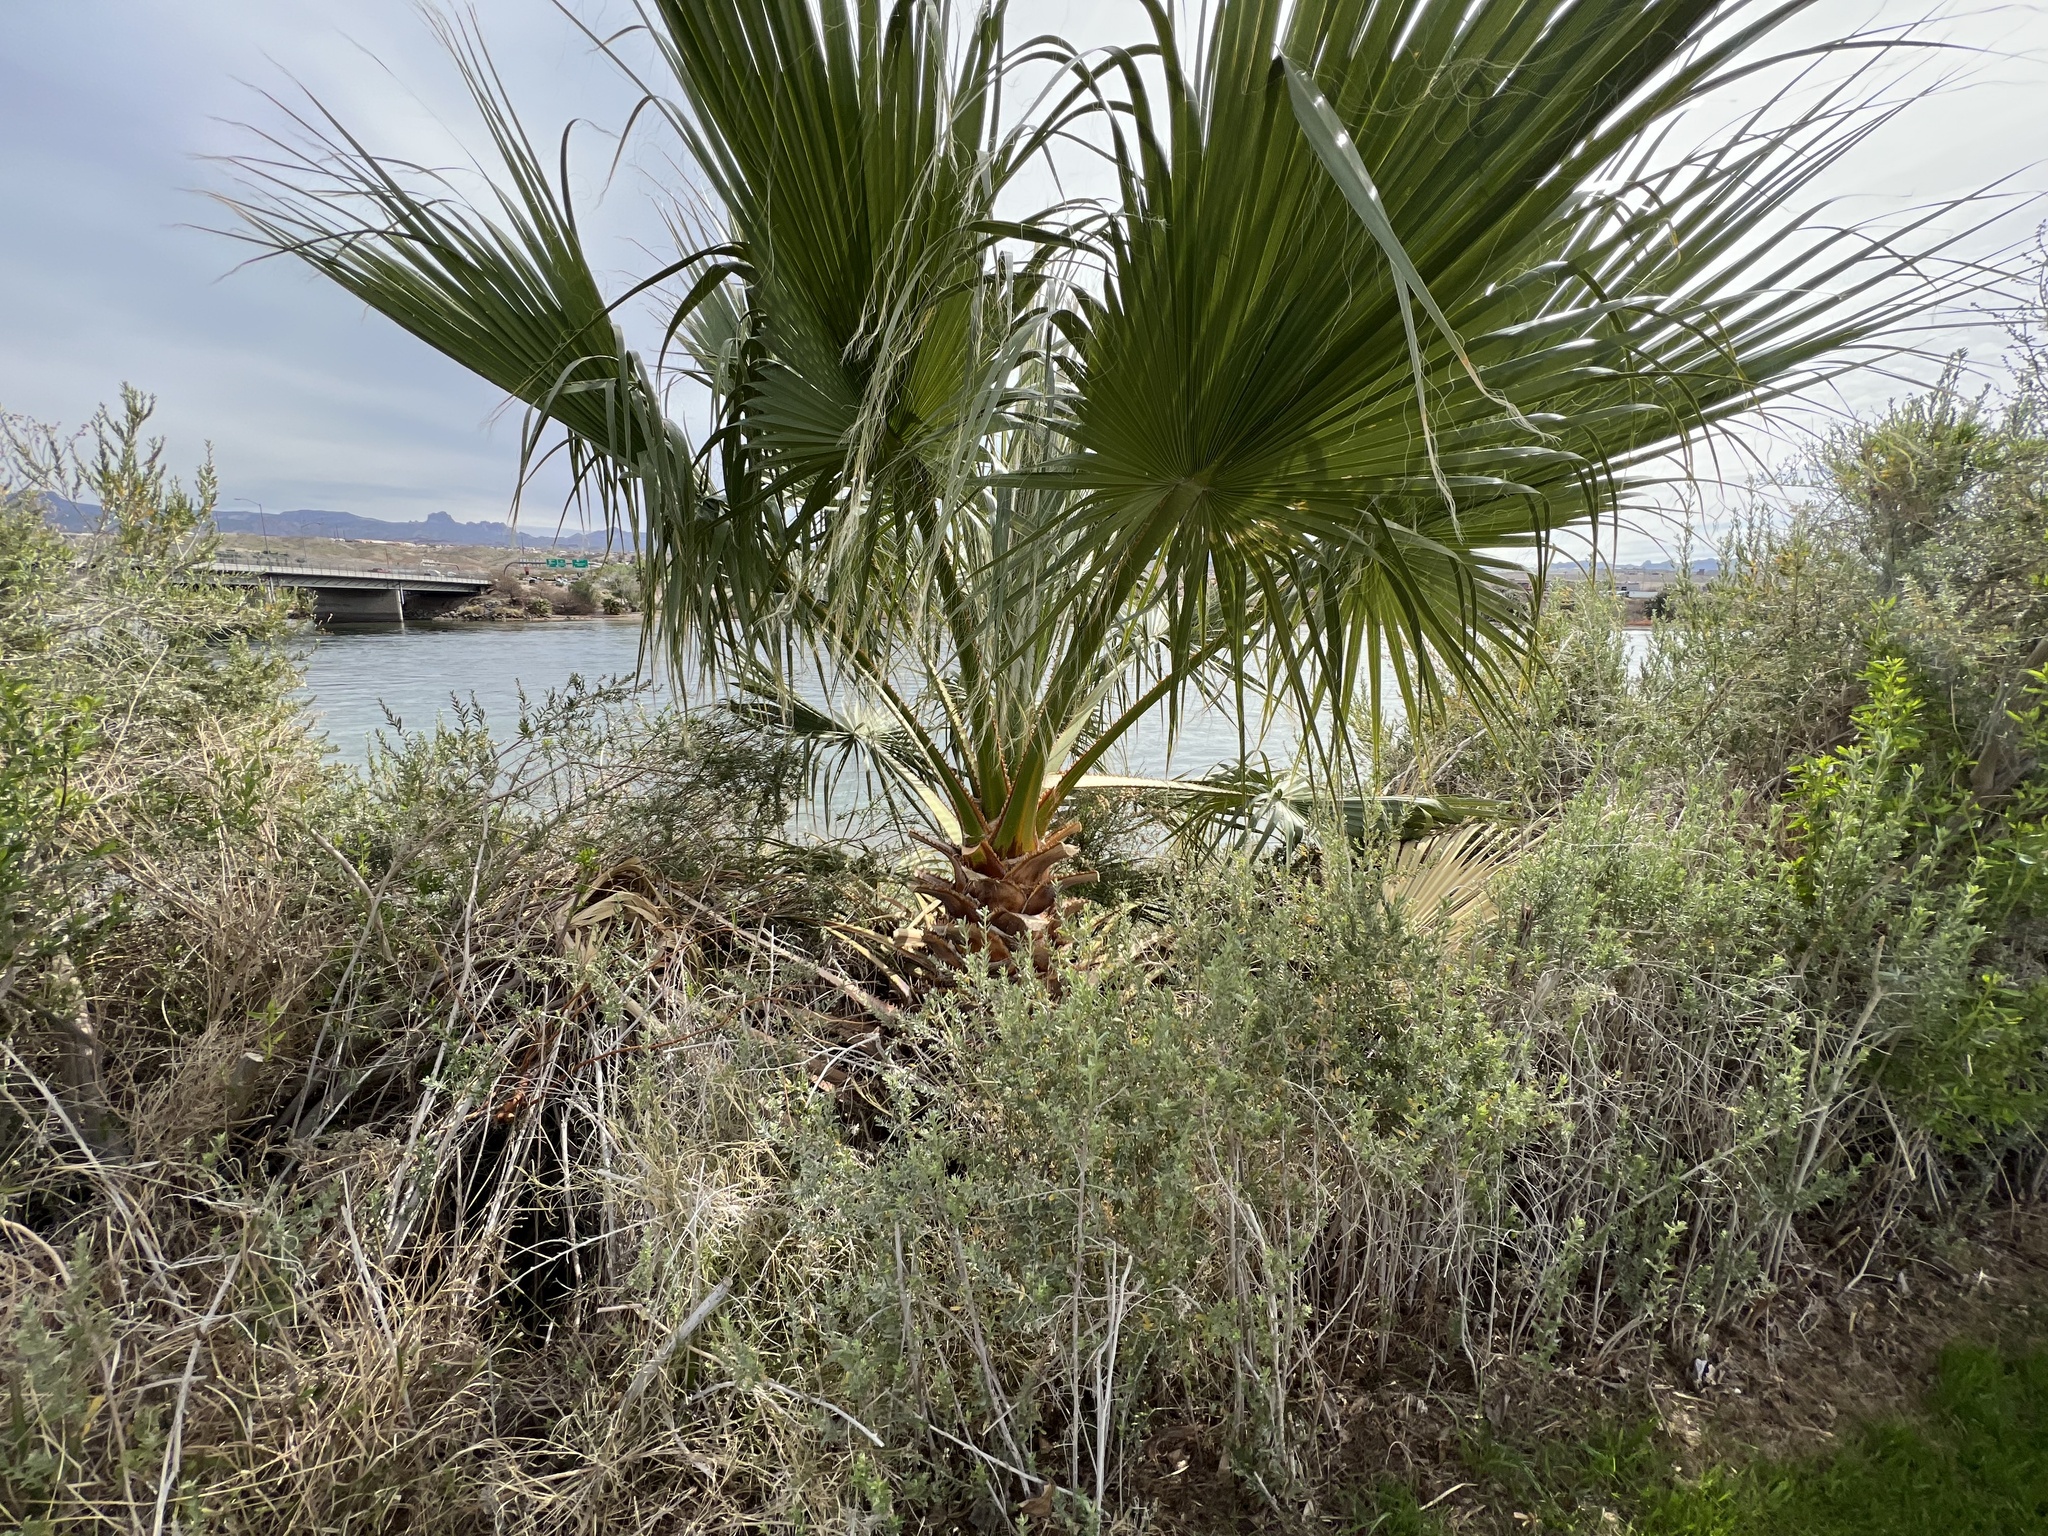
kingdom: Plantae
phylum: Tracheophyta
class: Liliopsida
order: Arecales
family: Arecaceae
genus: Washingtonia
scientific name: Washingtonia robusta
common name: Mexican fan palm
